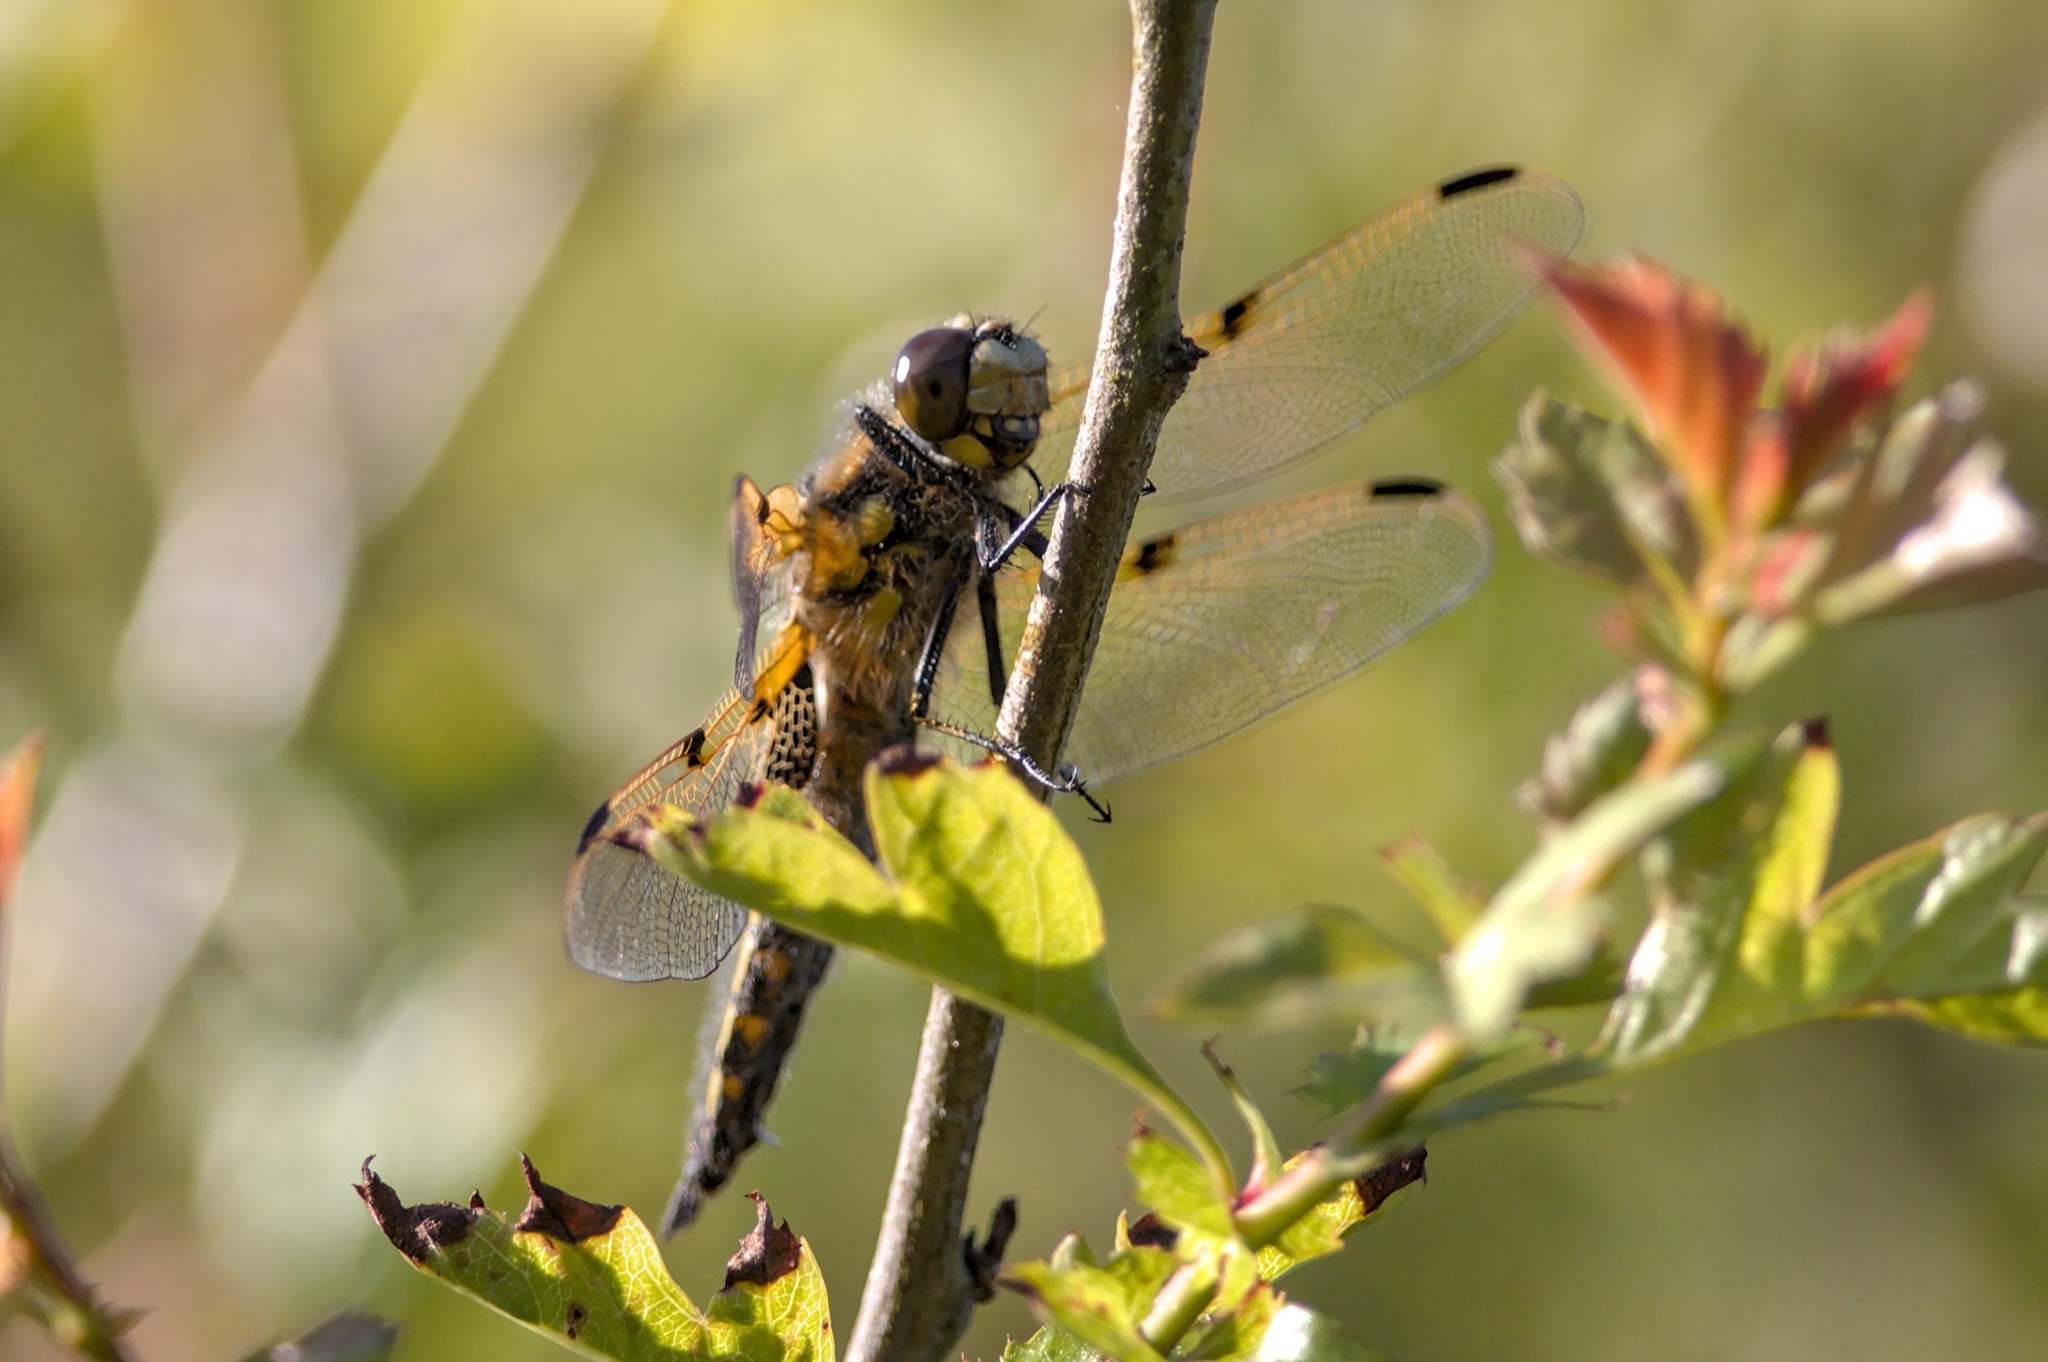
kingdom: Animalia
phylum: Arthropoda
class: Insecta
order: Odonata
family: Libellulidae
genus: Libellula
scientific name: Libellula quadrimaculata
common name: Four-spotted chaser
